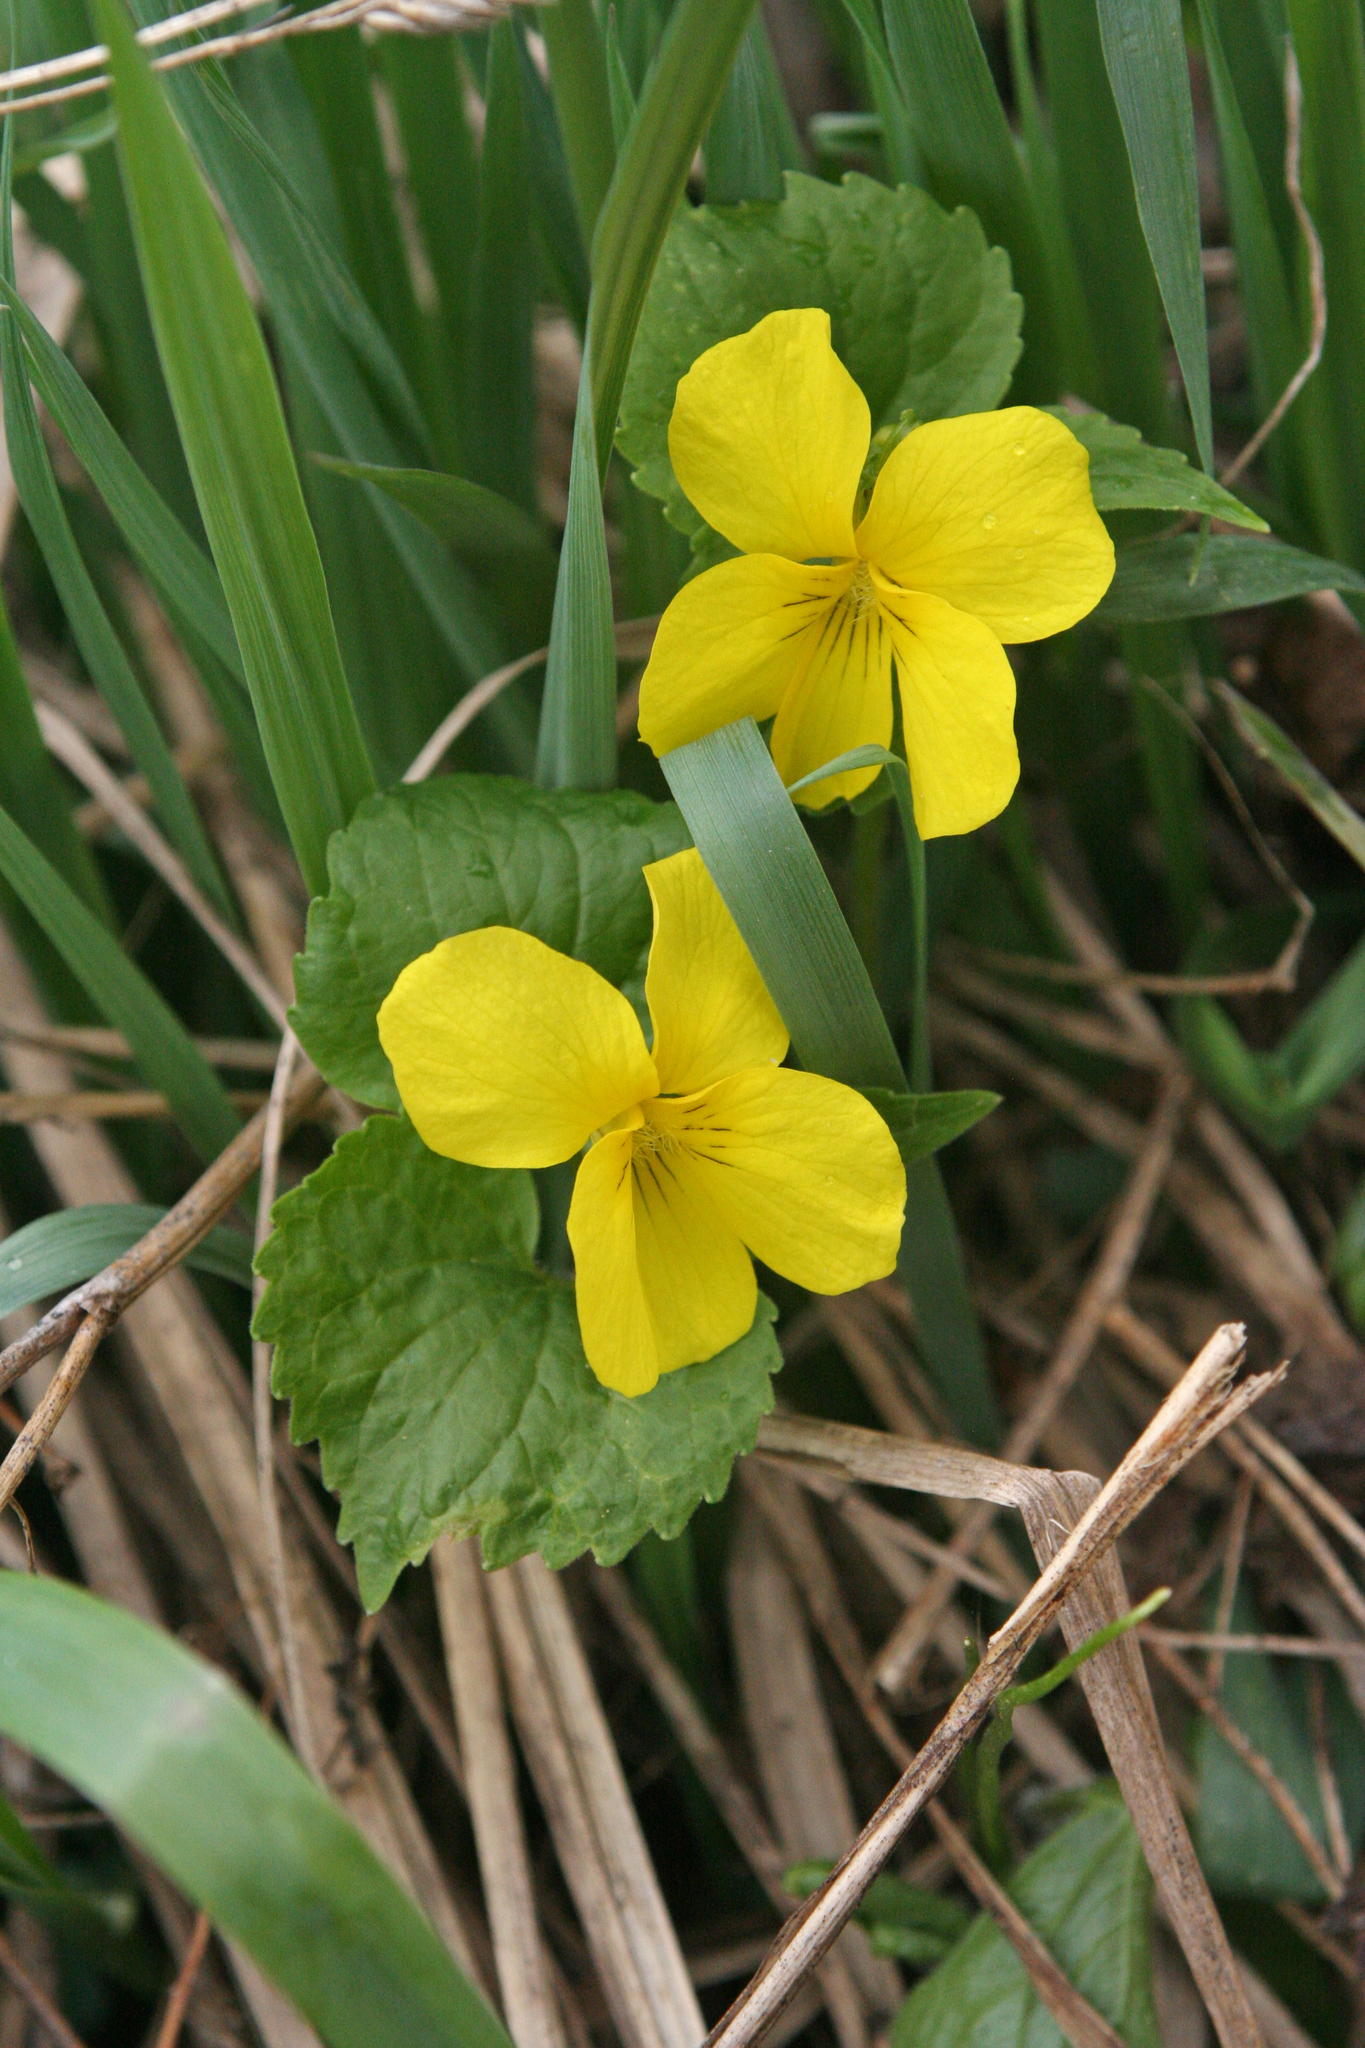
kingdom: Plantae
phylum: Tracheophyta
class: Magnoliopsida
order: Malpighiales
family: Violaceae
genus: Viola
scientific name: Viola uniflora
